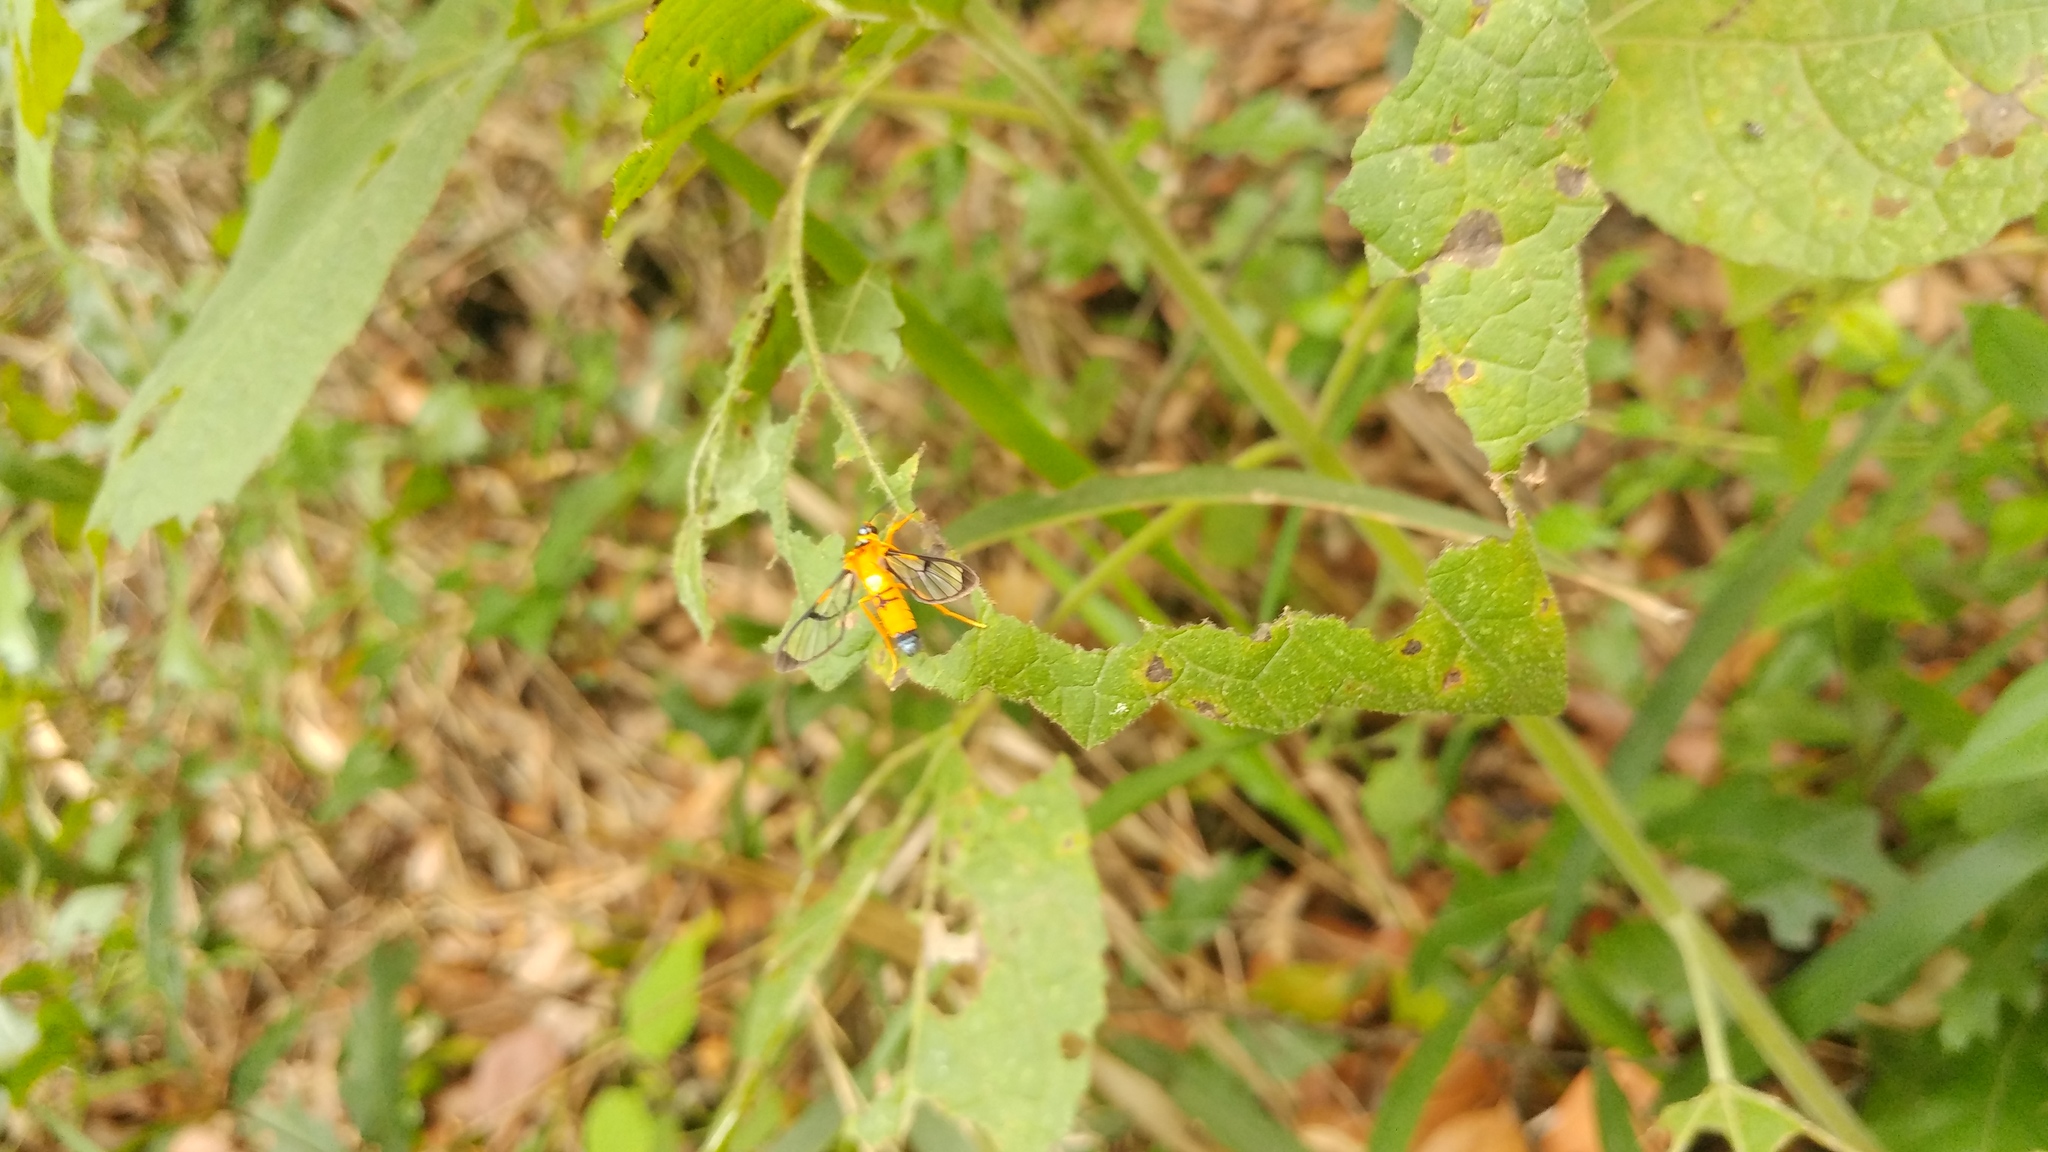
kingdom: Animalia
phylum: Arthropoda
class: Insecta
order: Lepidoptera
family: Erebidae
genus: Pseudosphex
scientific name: Pseudosphex leovazquezae
